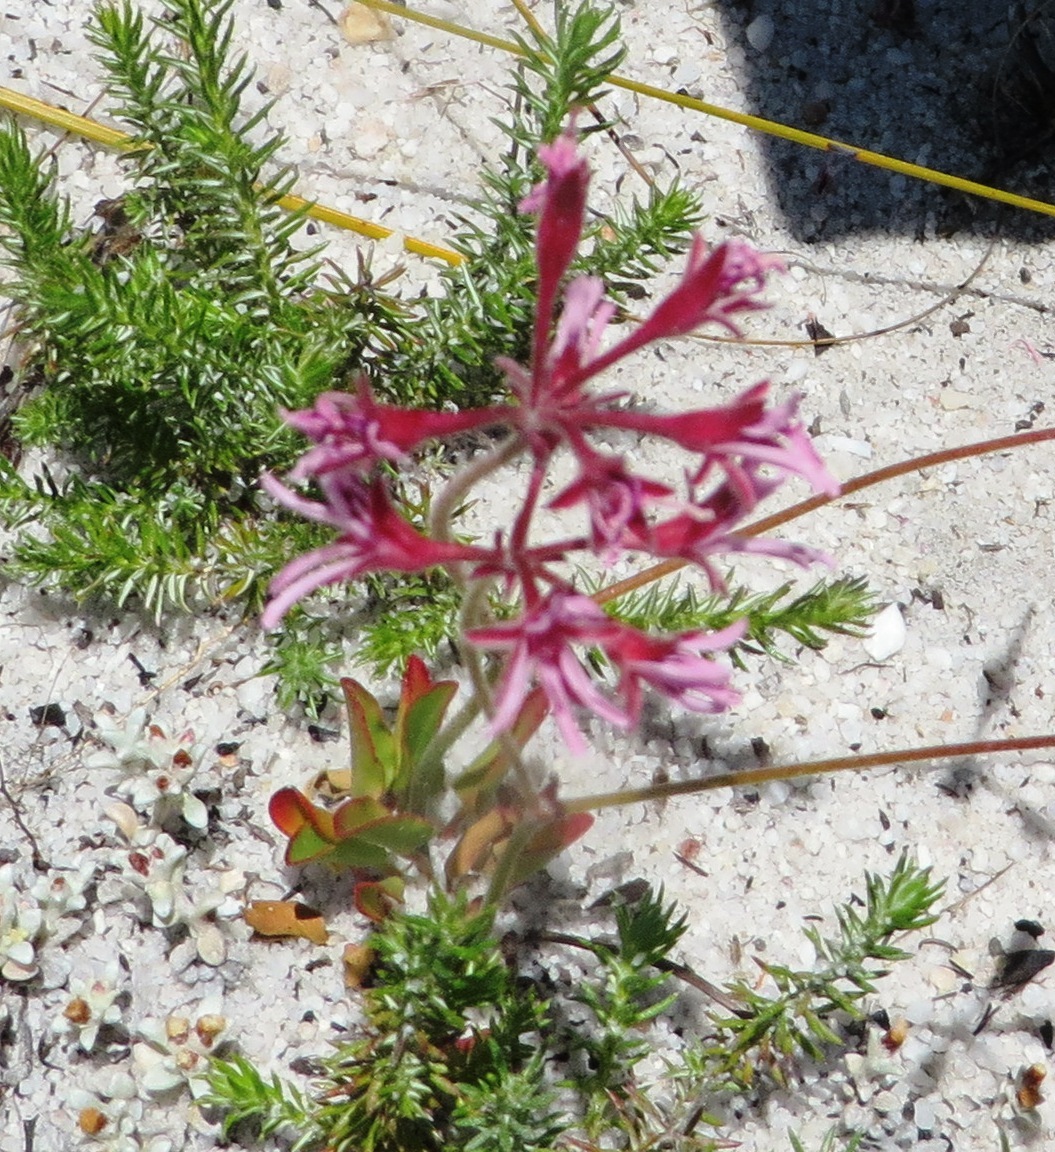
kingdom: Plantae
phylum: Tracheophyta
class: Magnoliopsida
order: Geraniales
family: Geraniaceae
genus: Pelargonium
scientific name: Pelargonium pilosellifolium
